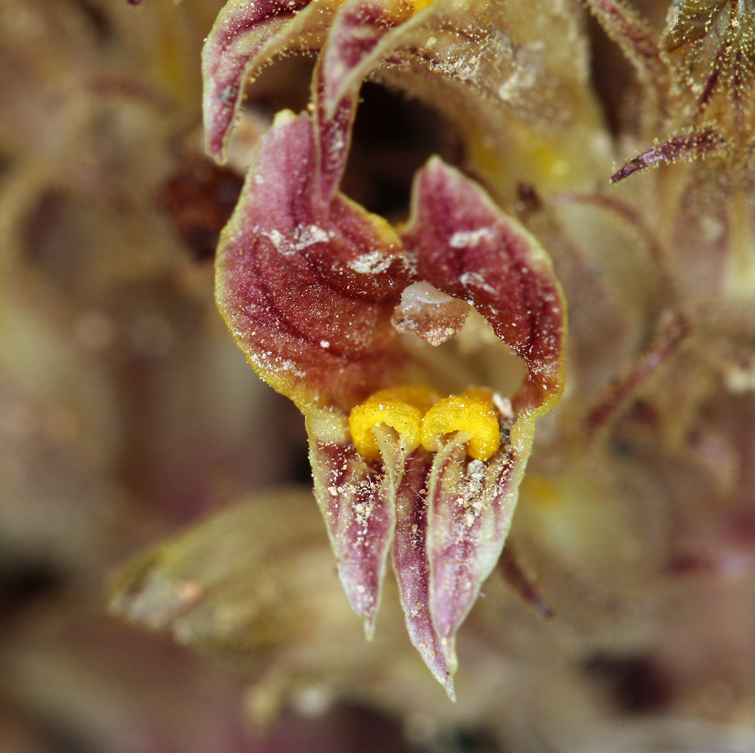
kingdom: Plantae
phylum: Tracheophyta
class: Magnoliopsida
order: Lamiales
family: Orobanchaceae
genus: Aphyllon
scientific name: Aphyllon corymbosum
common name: Flat-top broomrape
